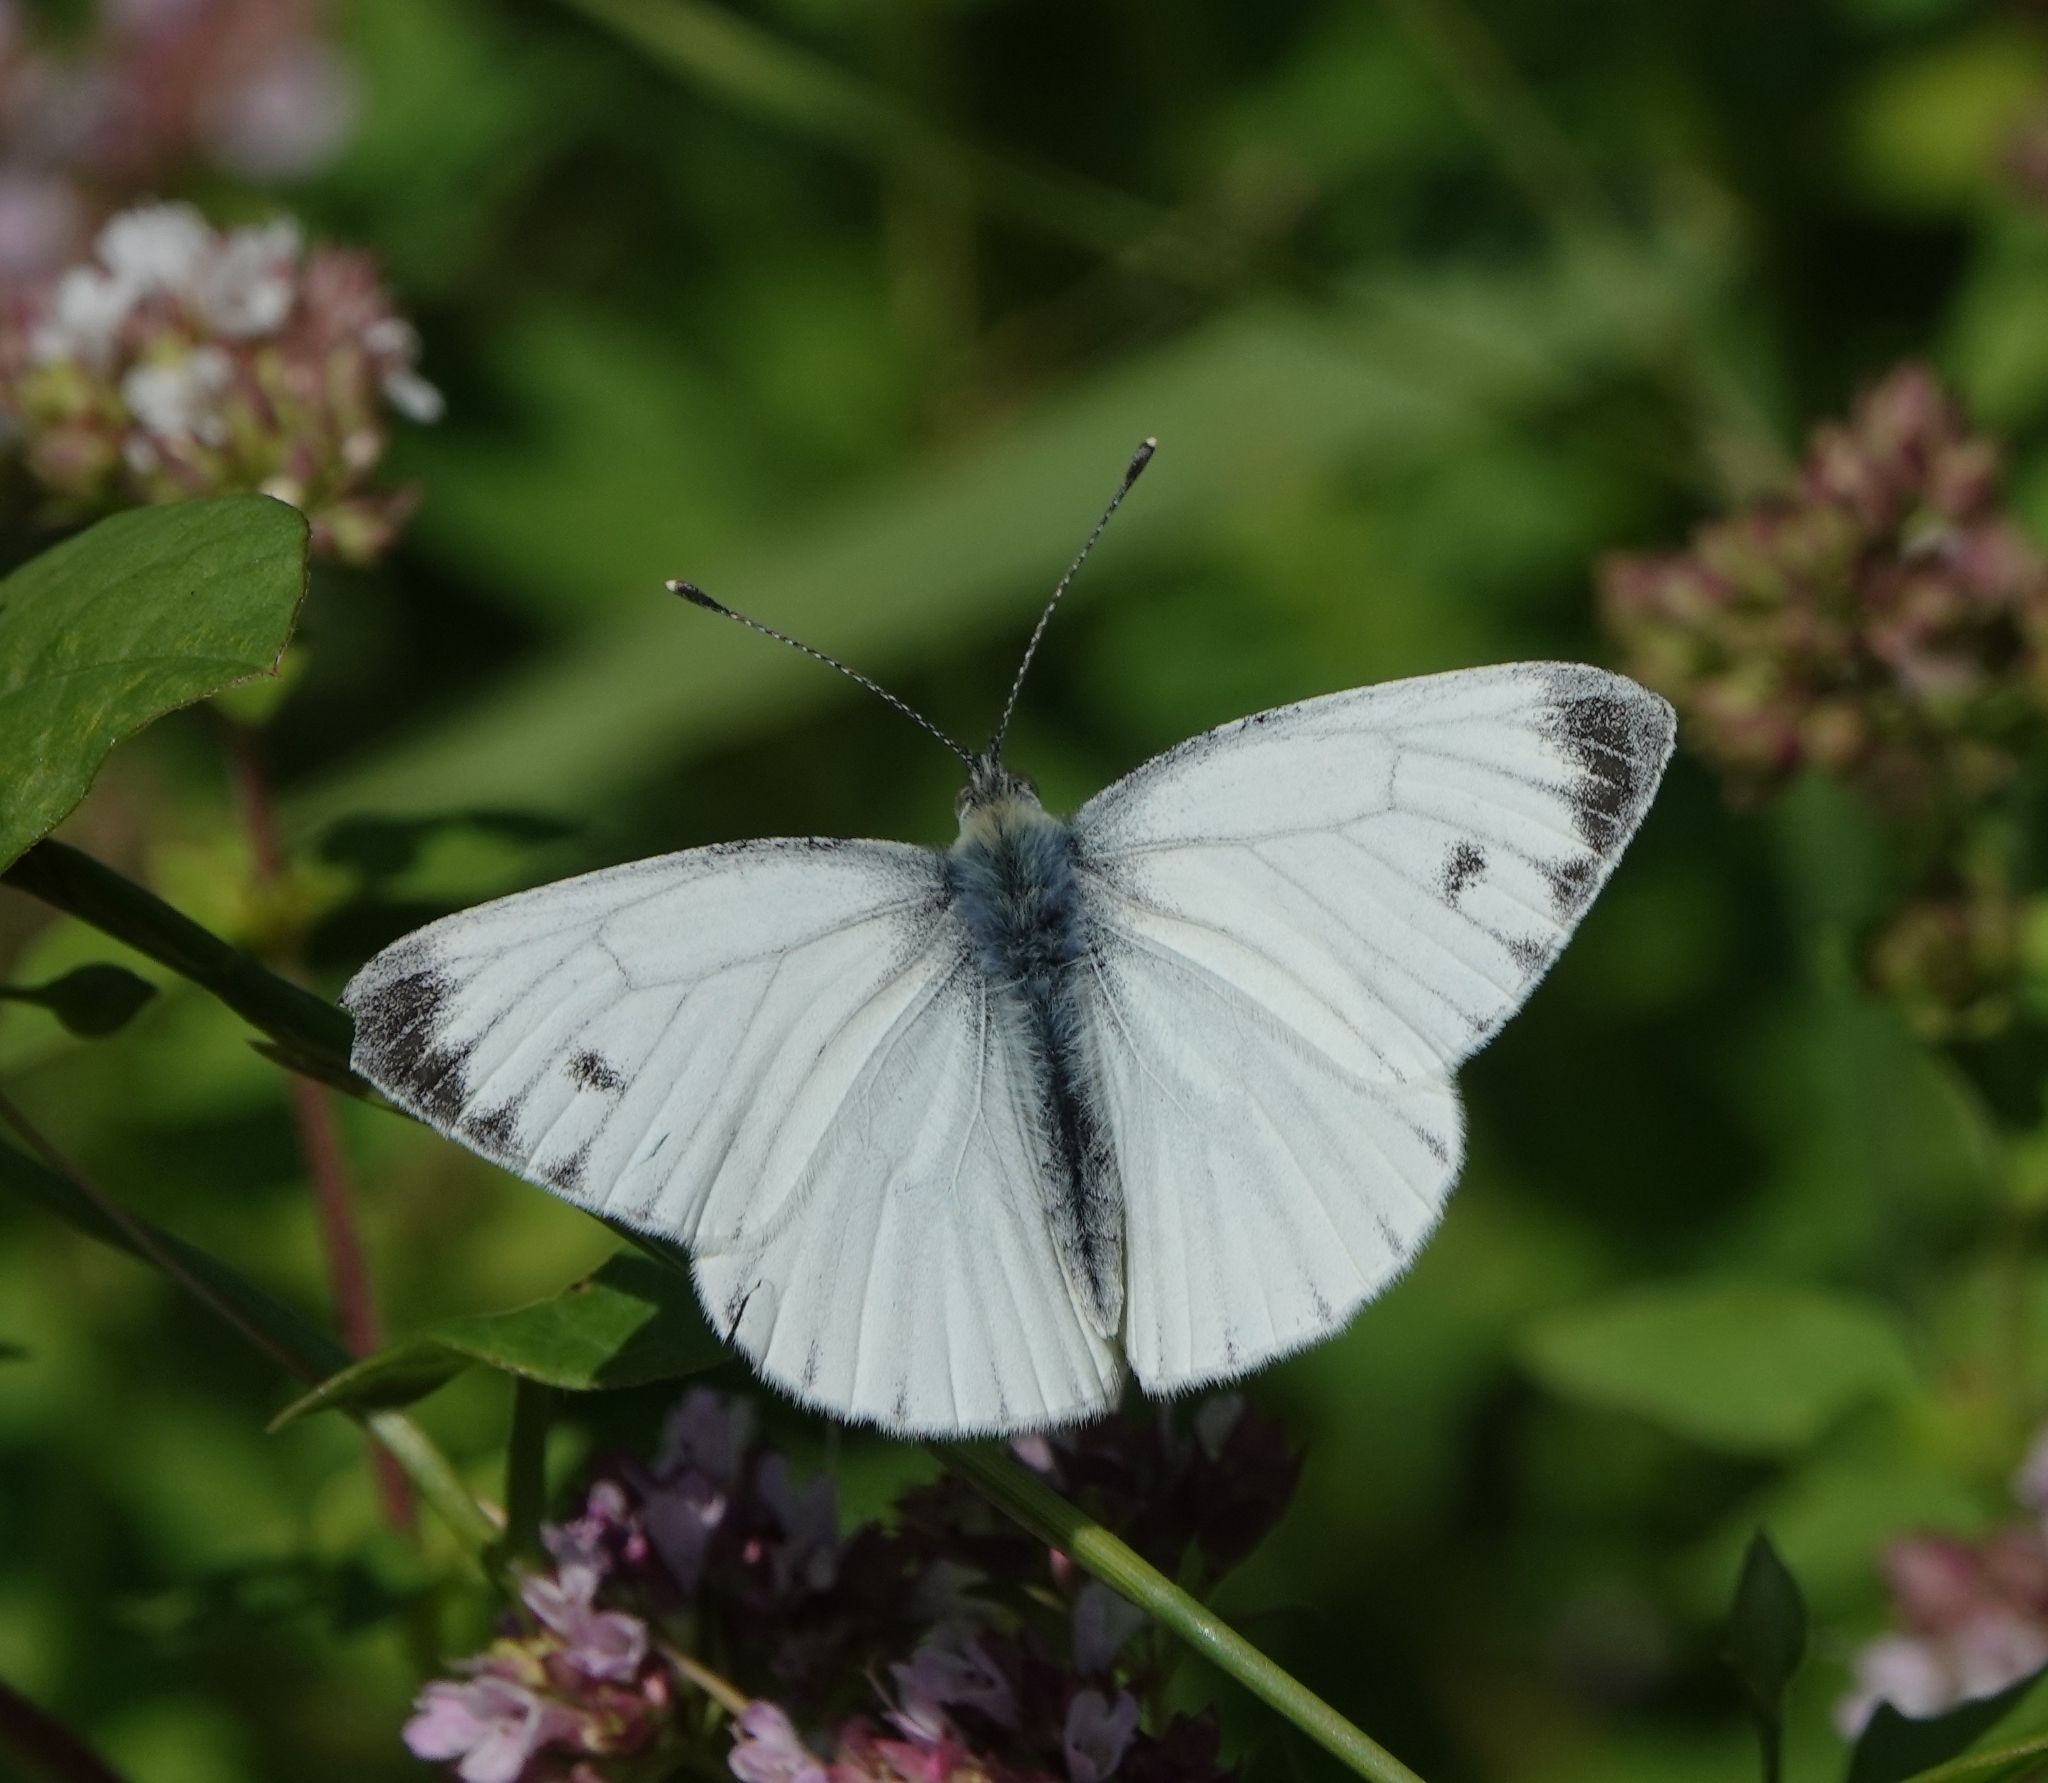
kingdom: Animalia
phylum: Arthropoda
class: Insecta
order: Lepidoptera
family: Pieridae
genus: Pieris
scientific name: Pieris napi
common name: Green-veined white
